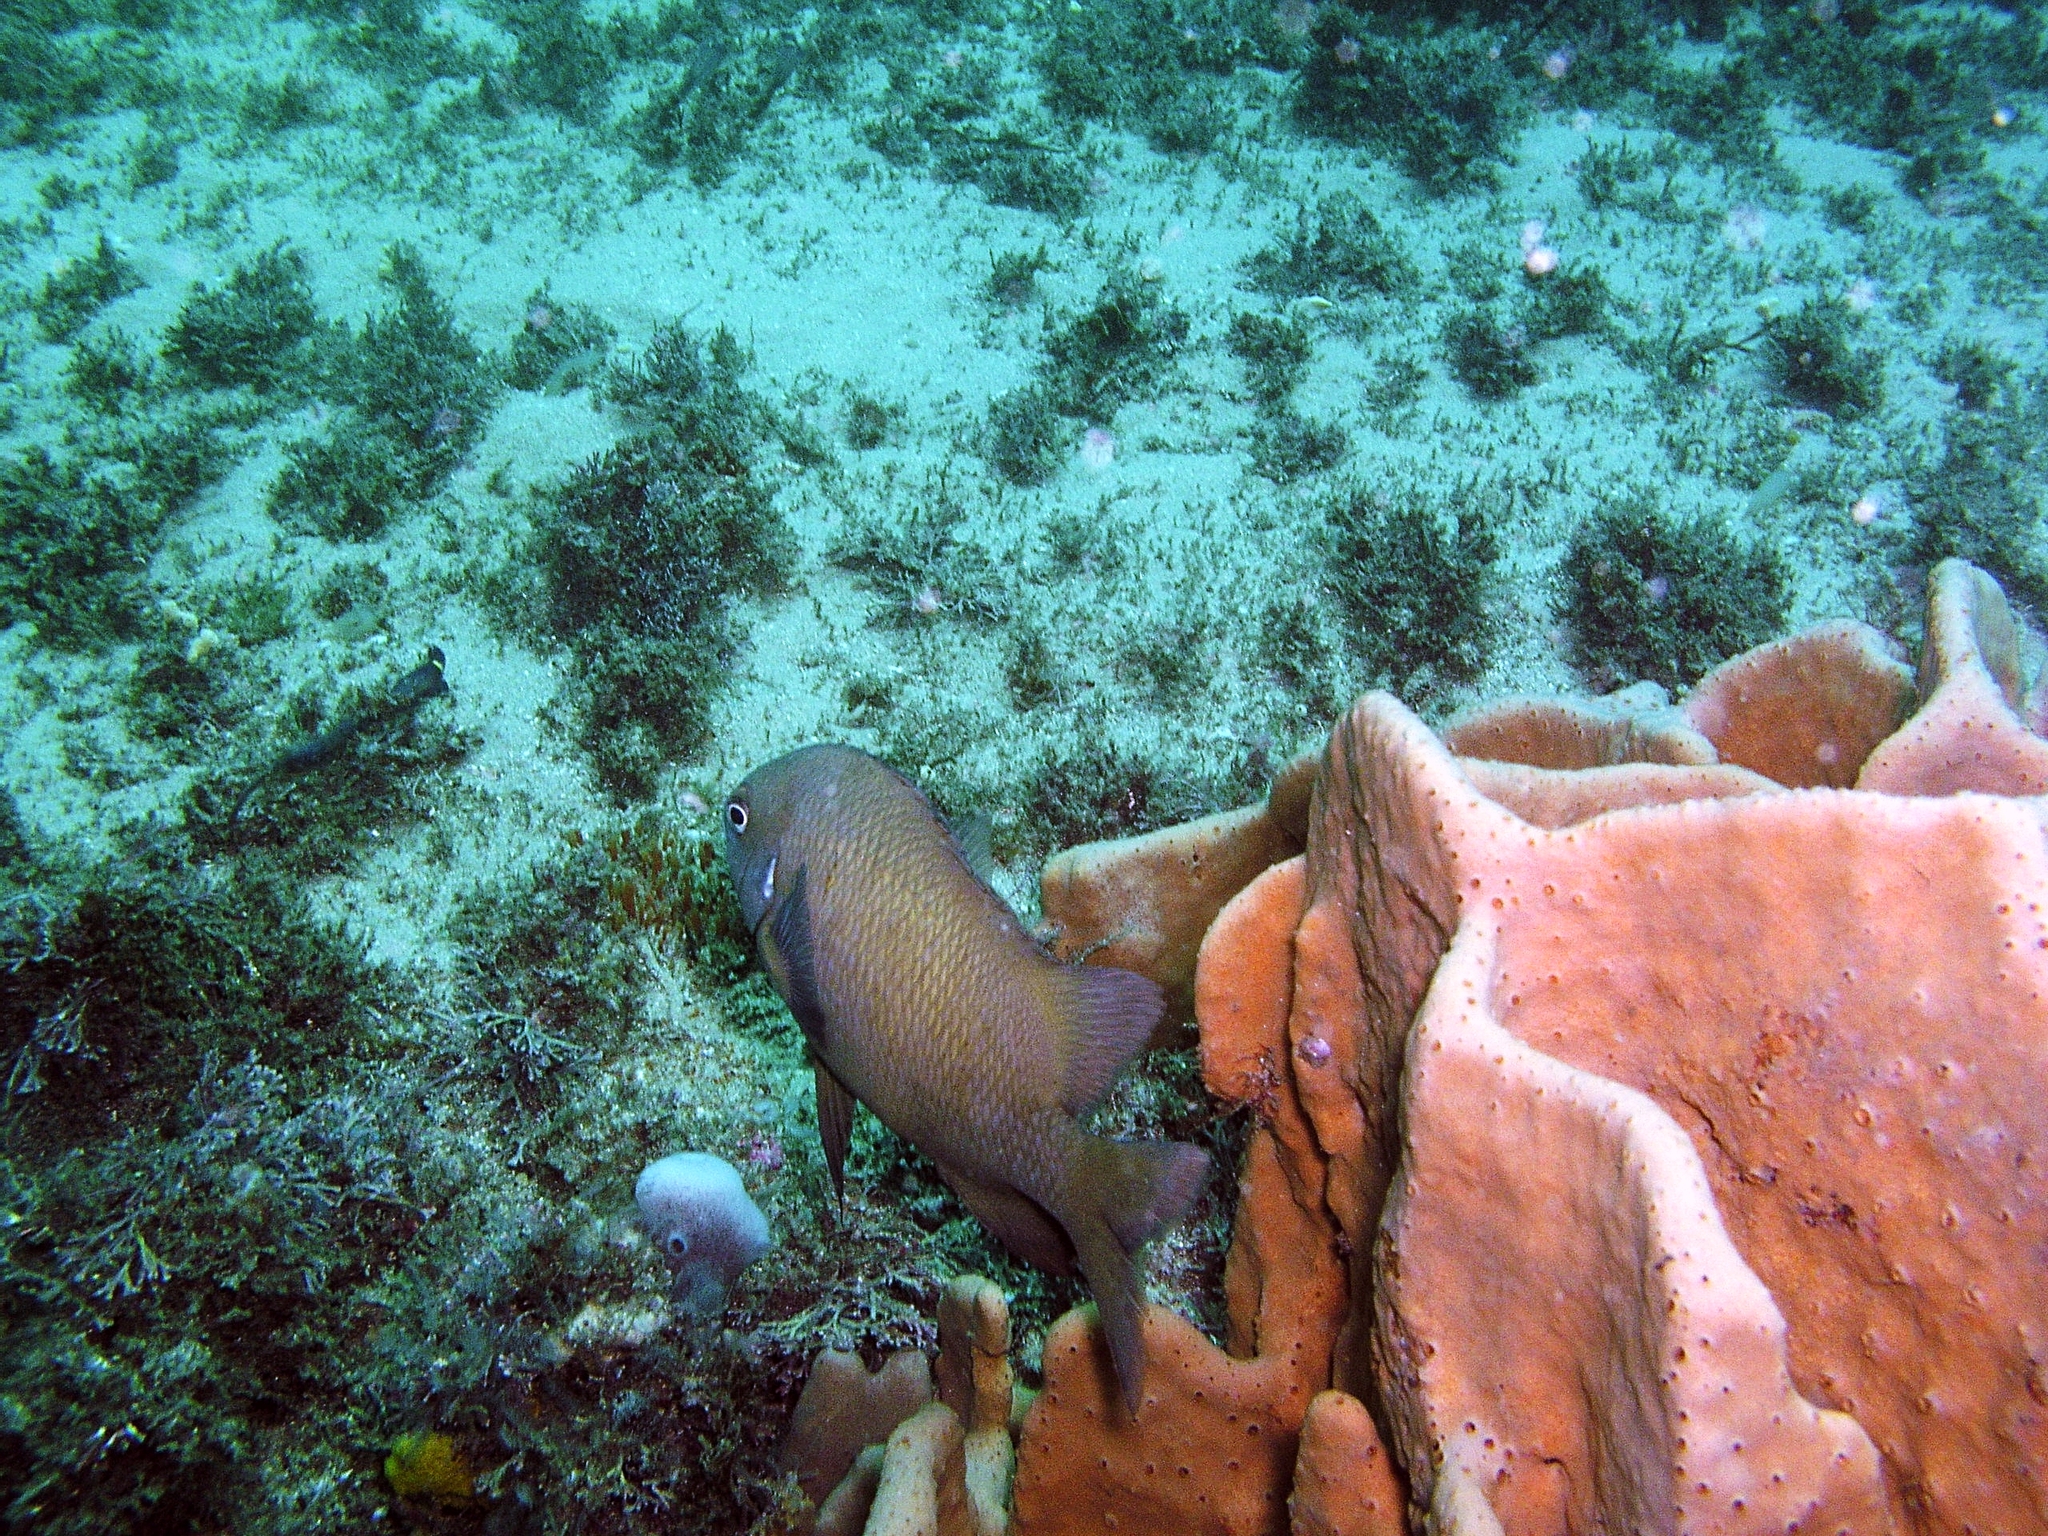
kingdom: Animalia
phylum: Chordata
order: Perciformes
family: Pomacentridae
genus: Parma
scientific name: Parma microlepis
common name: White-ear
